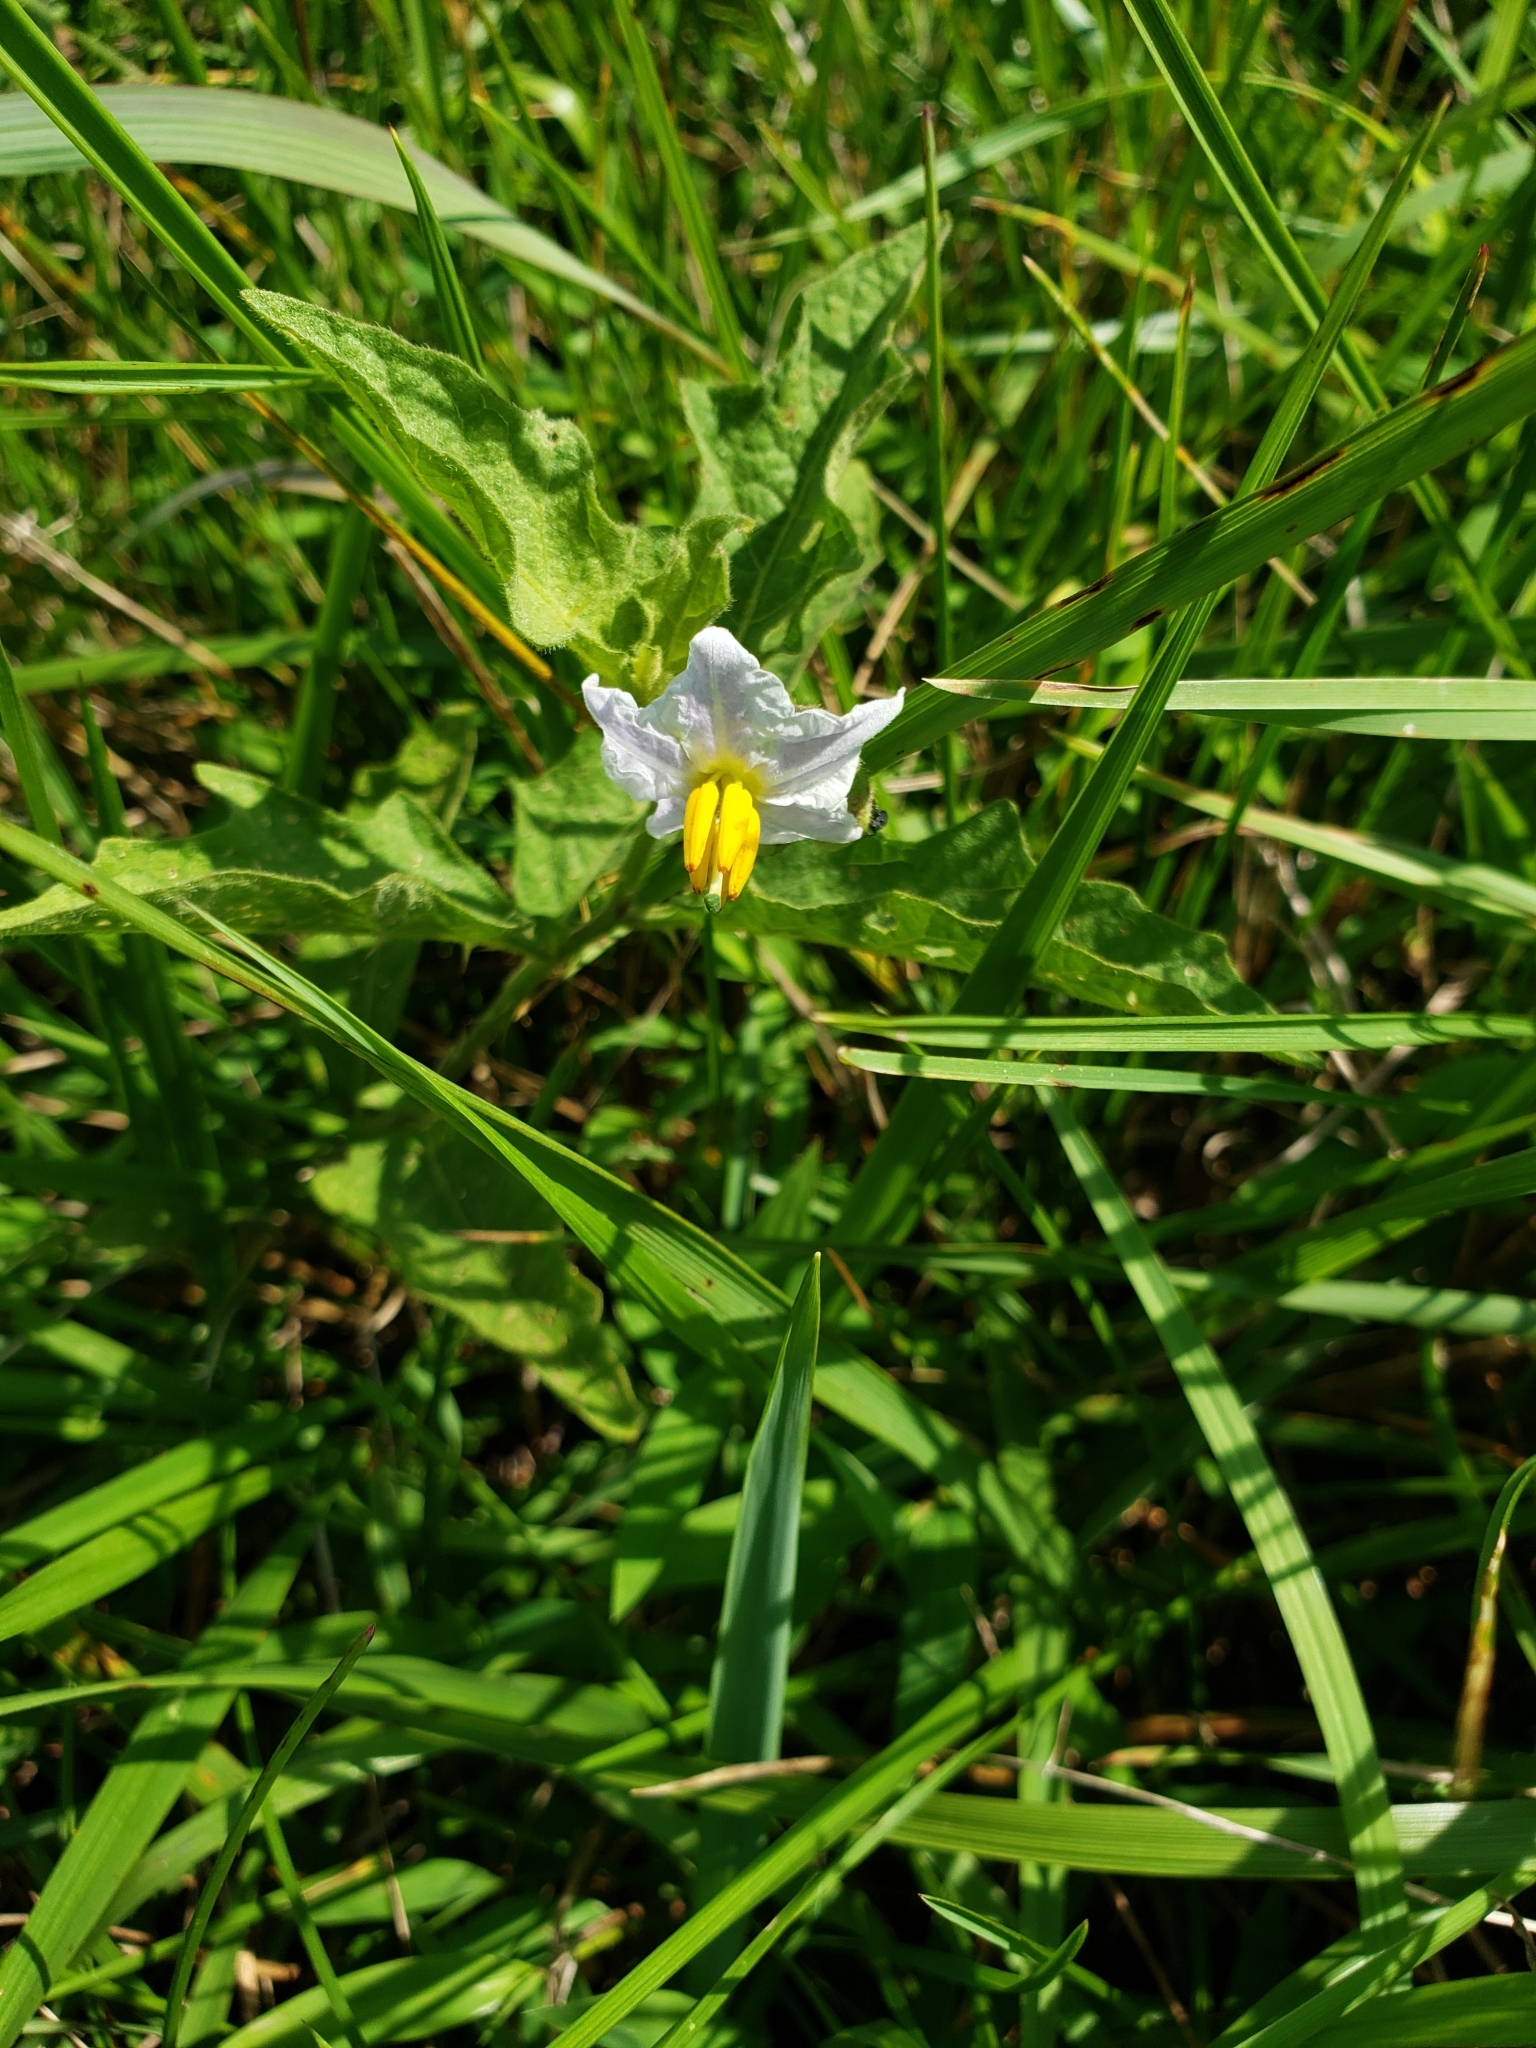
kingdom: Plantae
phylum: Tracheophyta
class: Magnoliopsida
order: Solanales
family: Solanaceae
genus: Solanum
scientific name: Solanum carolinense
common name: Horse-nettle
